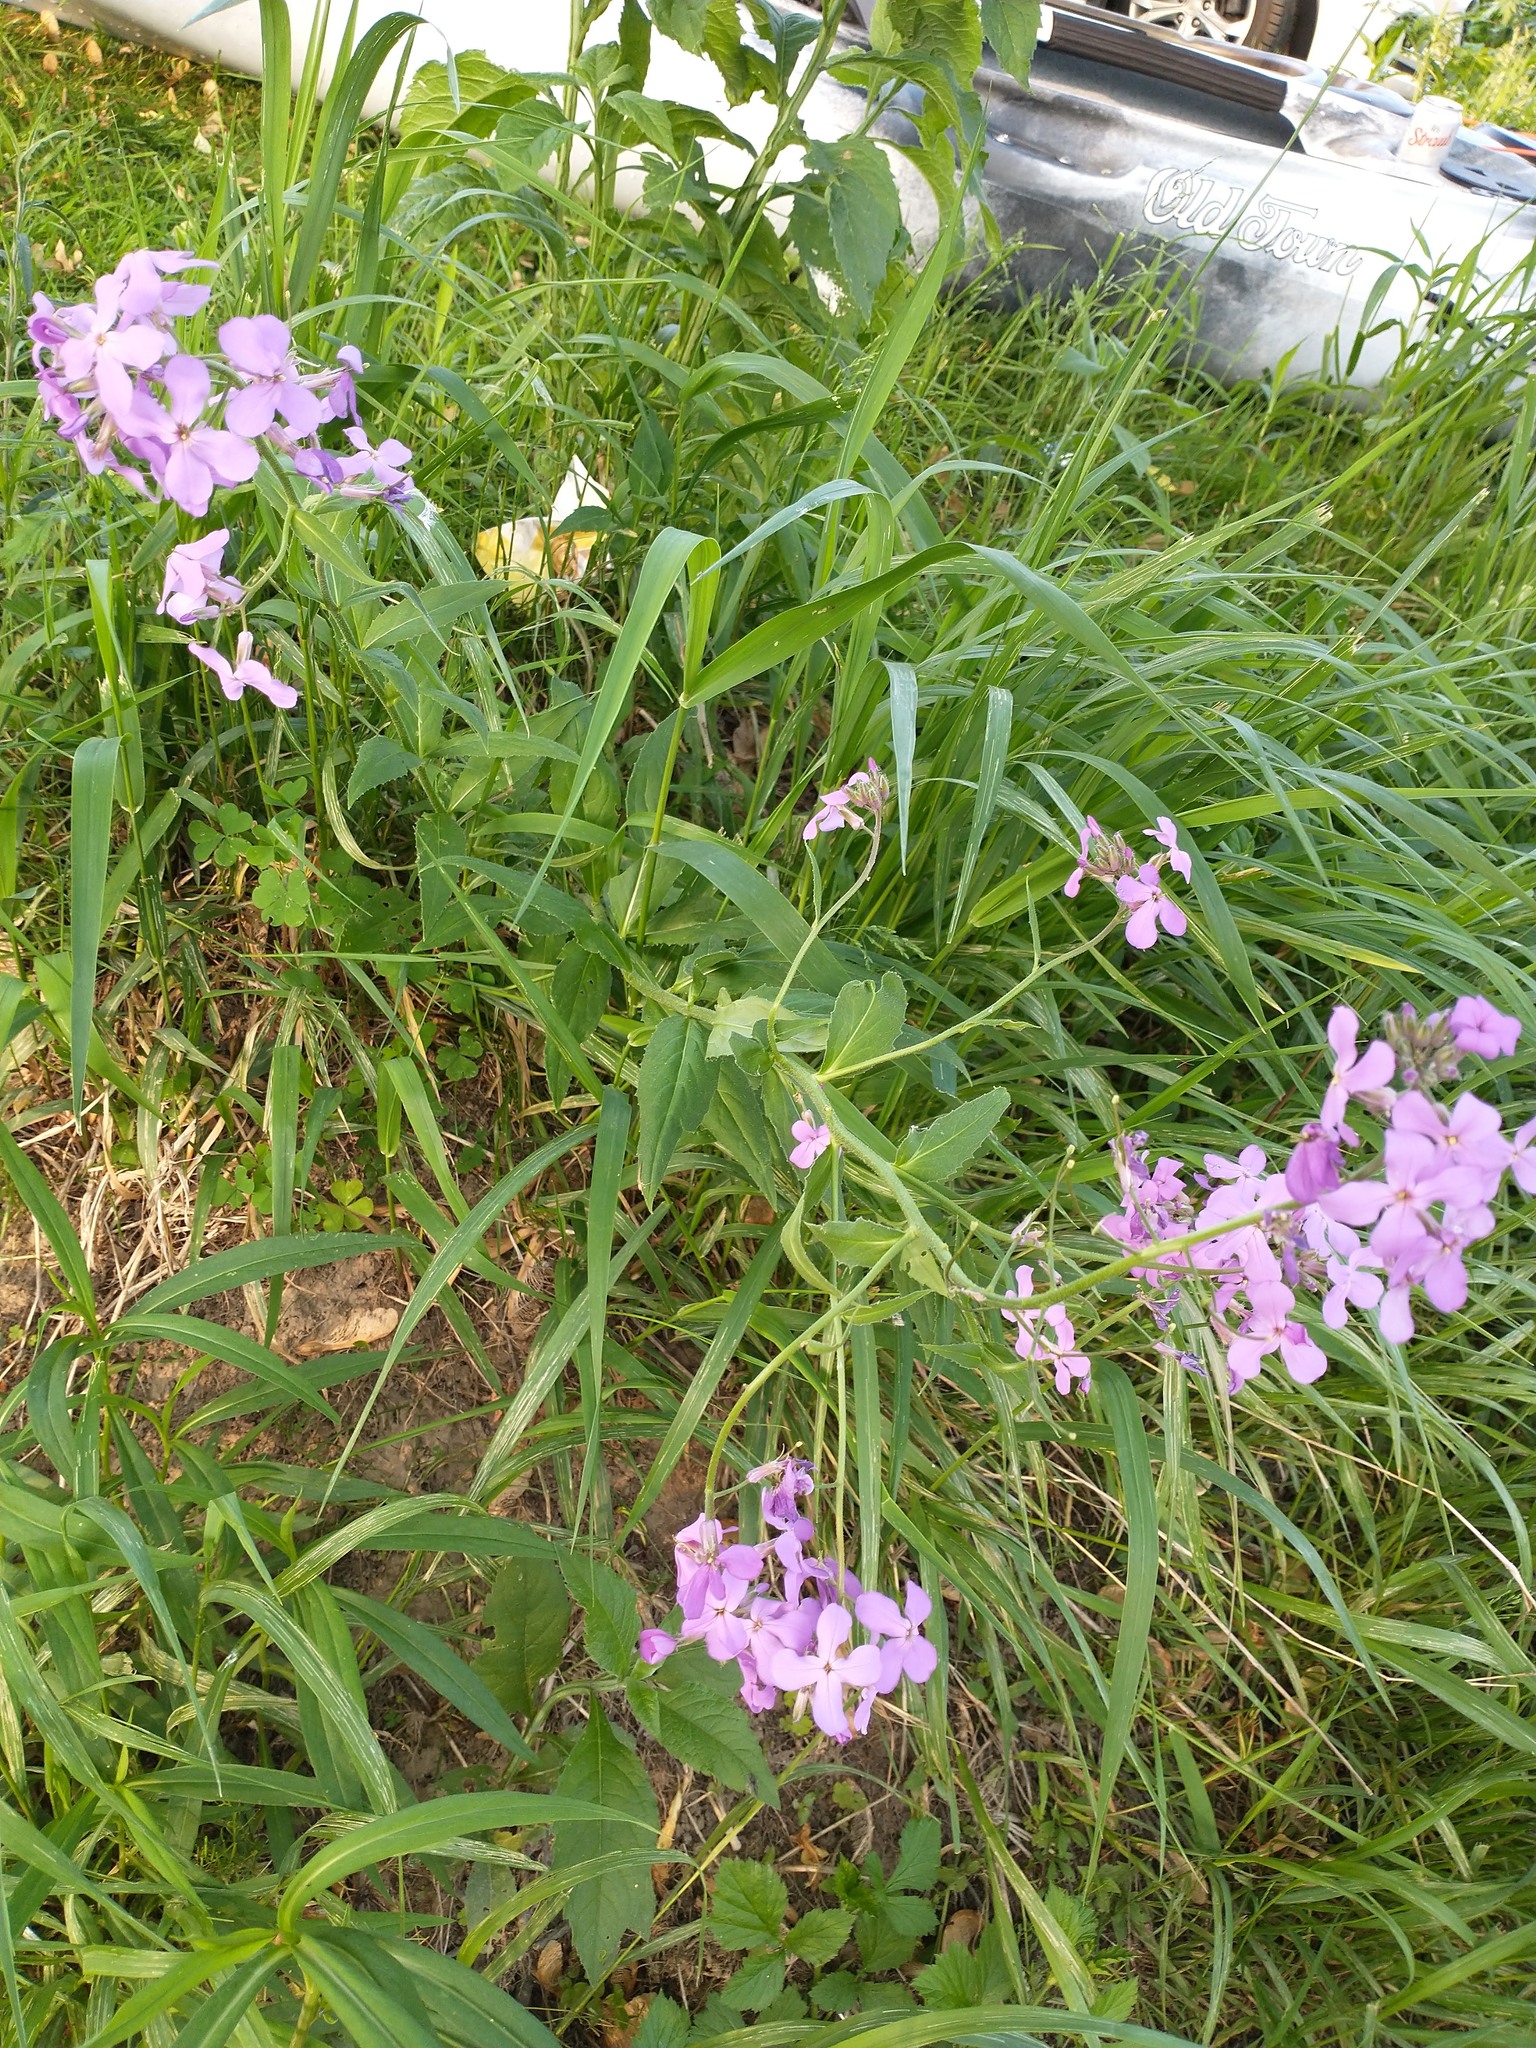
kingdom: Plantae
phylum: Tracheophyta
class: Magnoliopsida
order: Brassicales
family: Brassicaceae
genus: Hesperis
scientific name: Hesperis matronalis
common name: Dame's-violet
